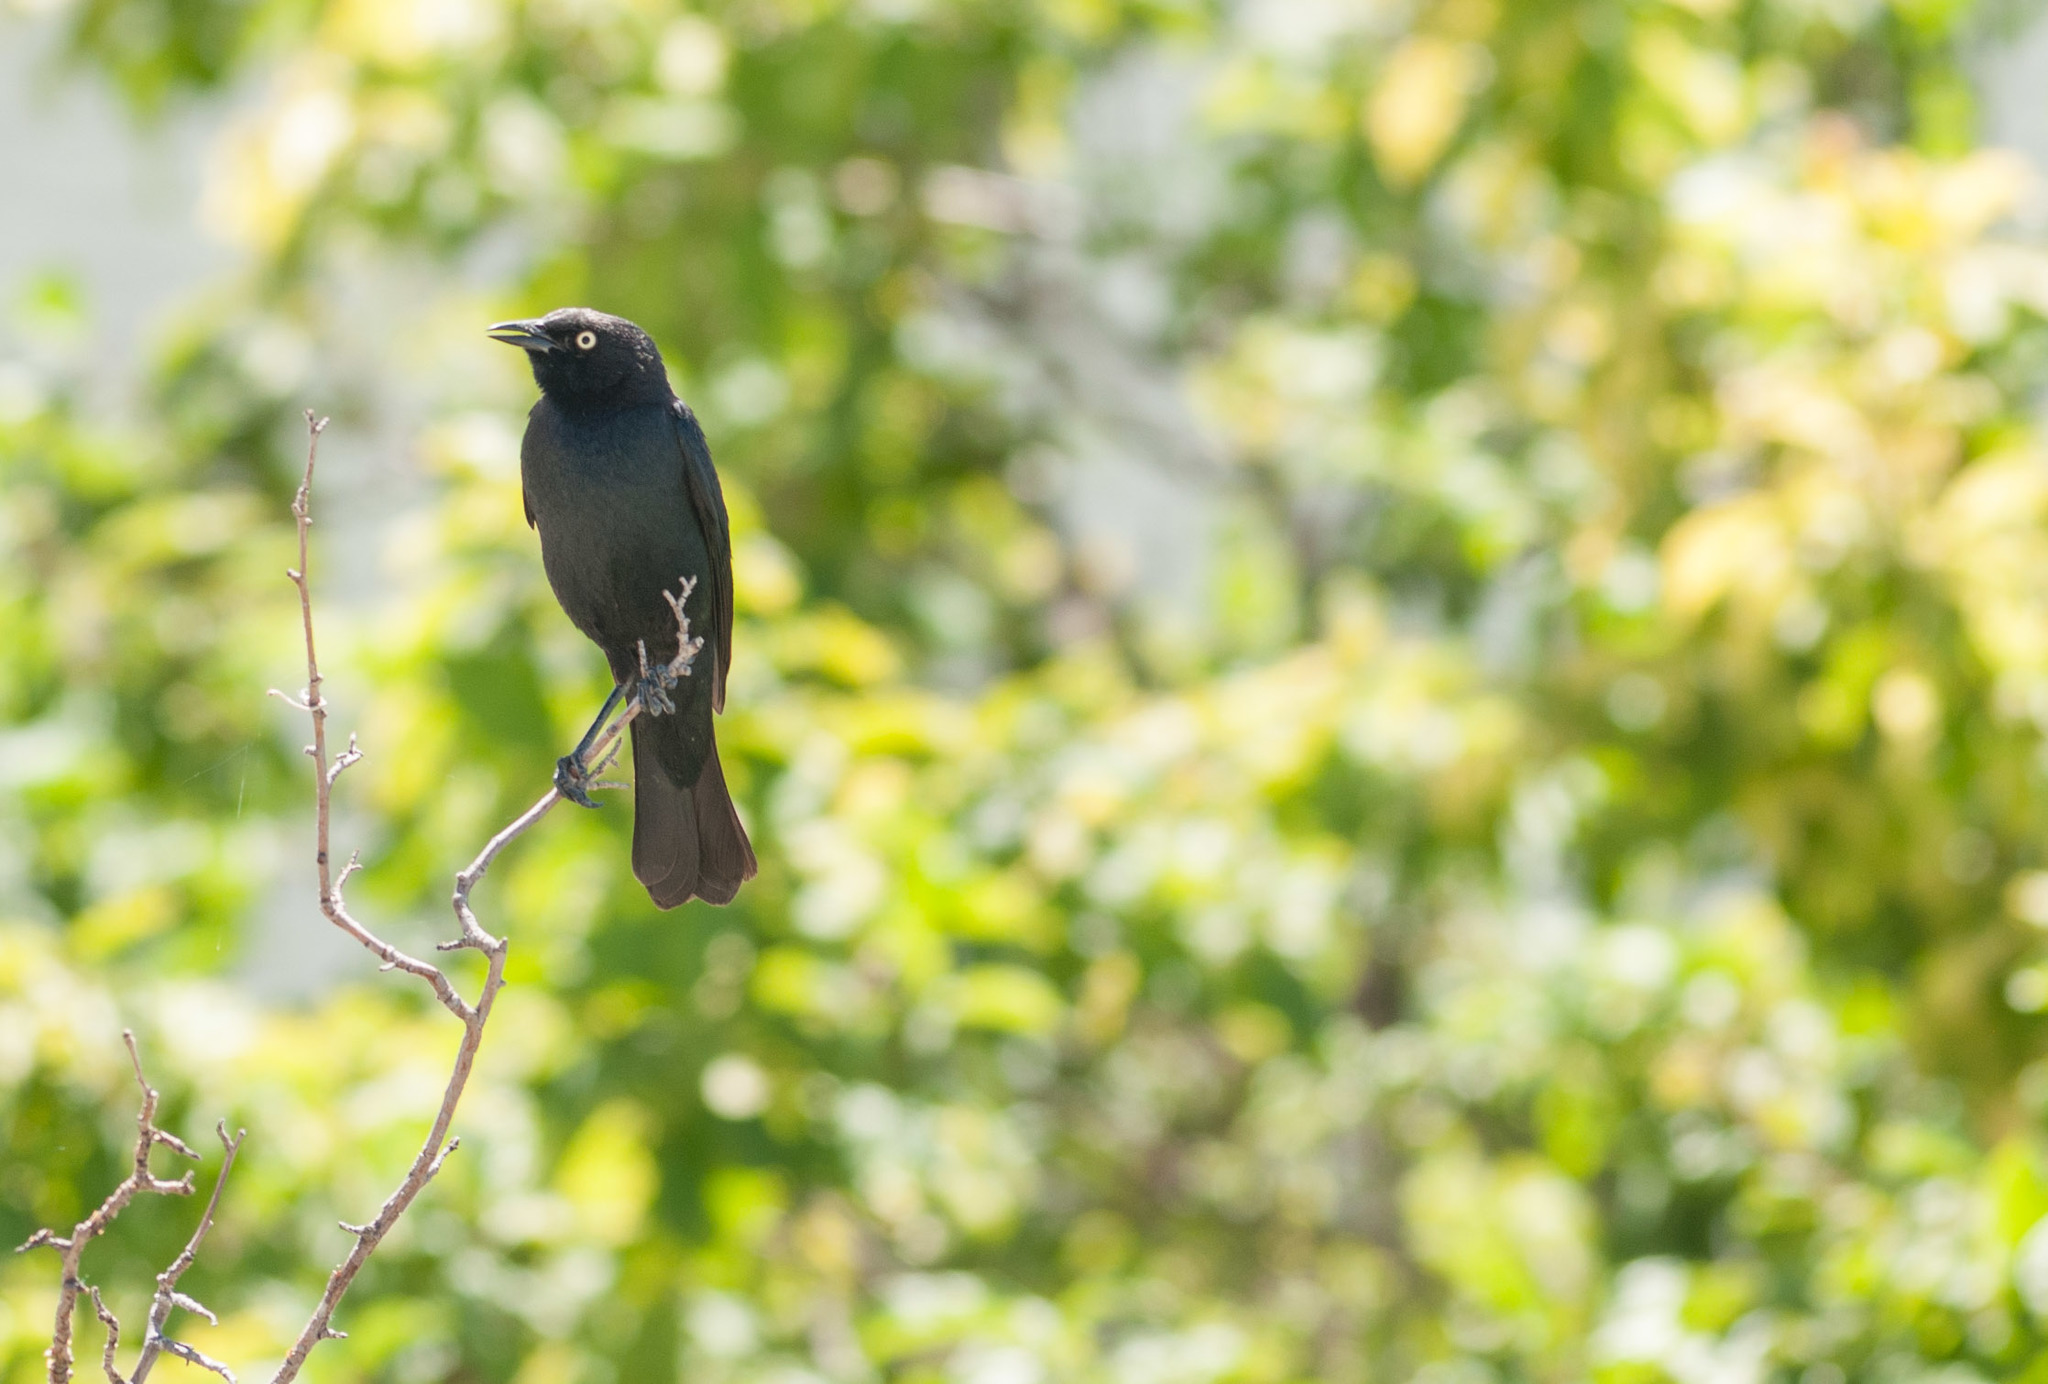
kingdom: Animalia
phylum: Chordata
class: Aves
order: Passeriformes
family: Icteridae
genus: Euphagus
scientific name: Euphagus cyanocephalus
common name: Brewer's blackbird
